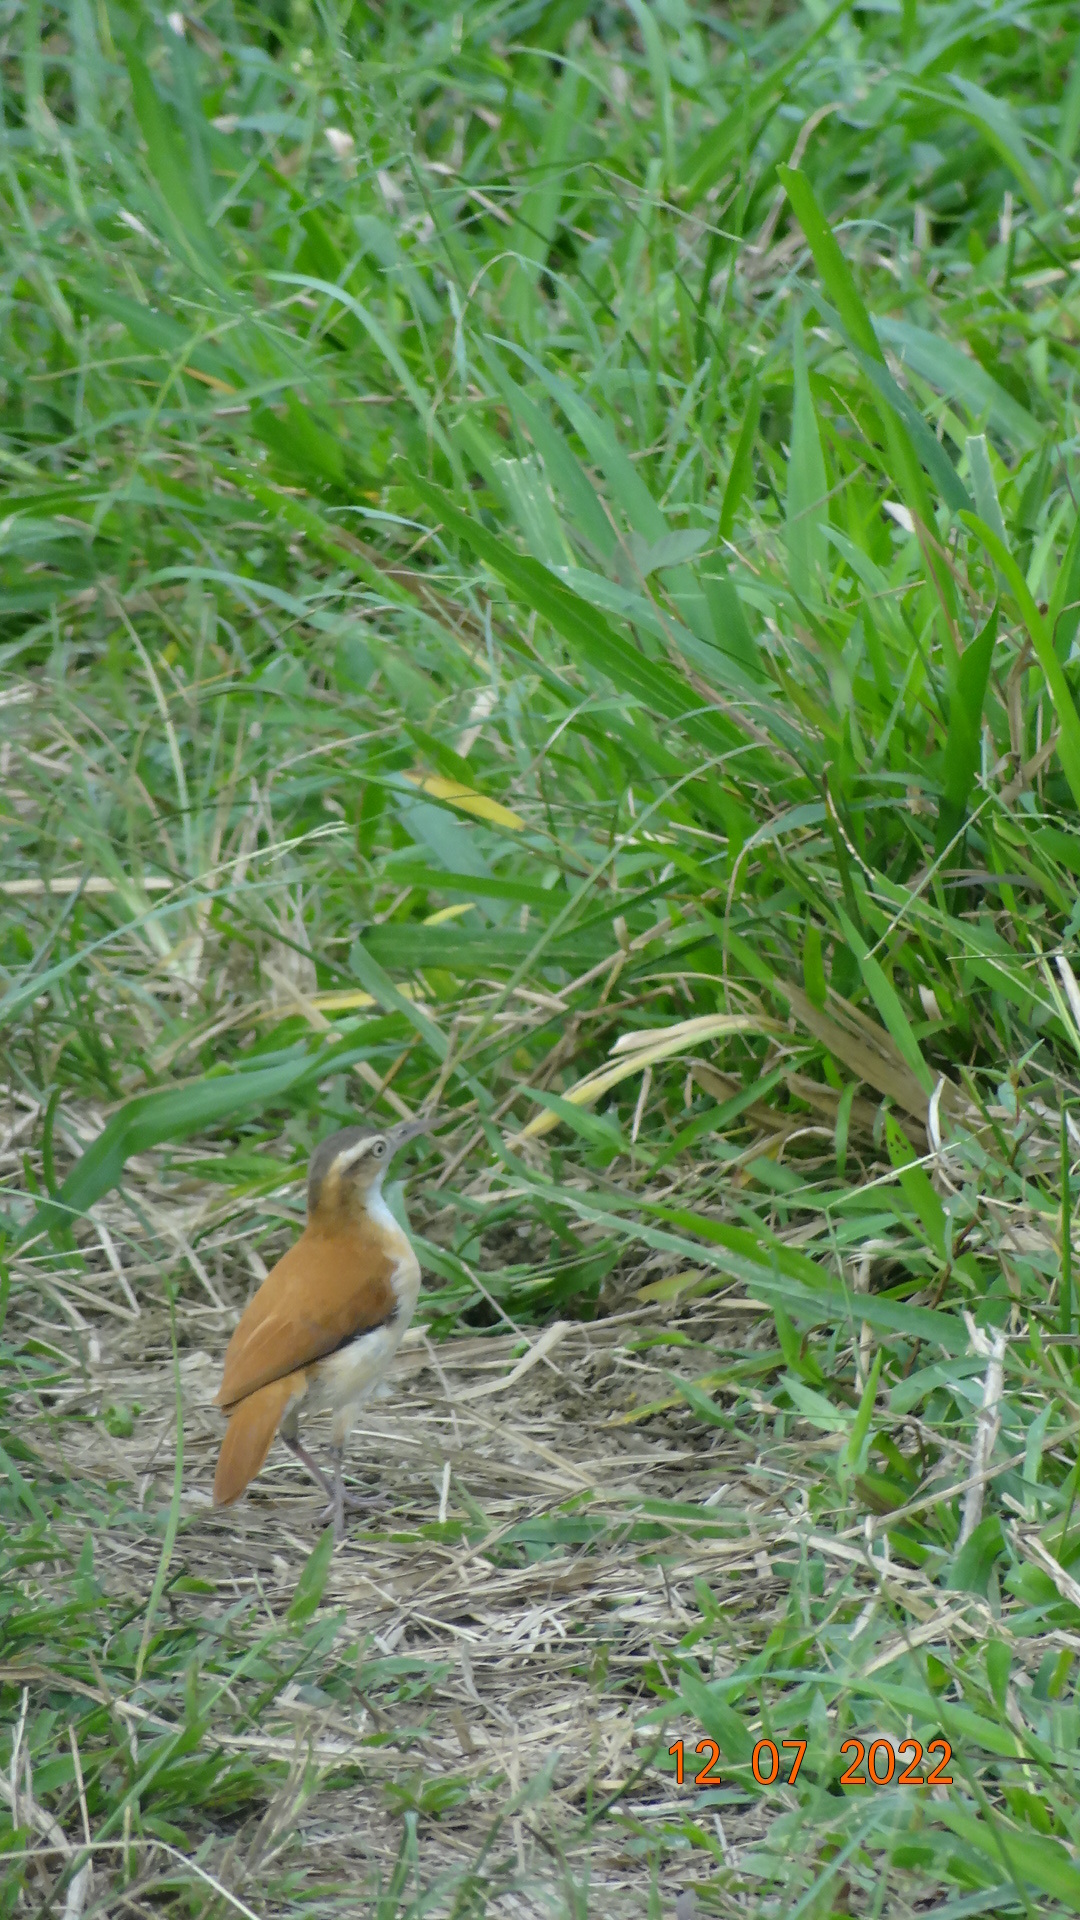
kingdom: Animalia
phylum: Chordata
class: Aves
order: Passeriformes
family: Furnariidae
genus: Furnarius
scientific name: Furnarius leucopus
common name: Pale-legged hornero
